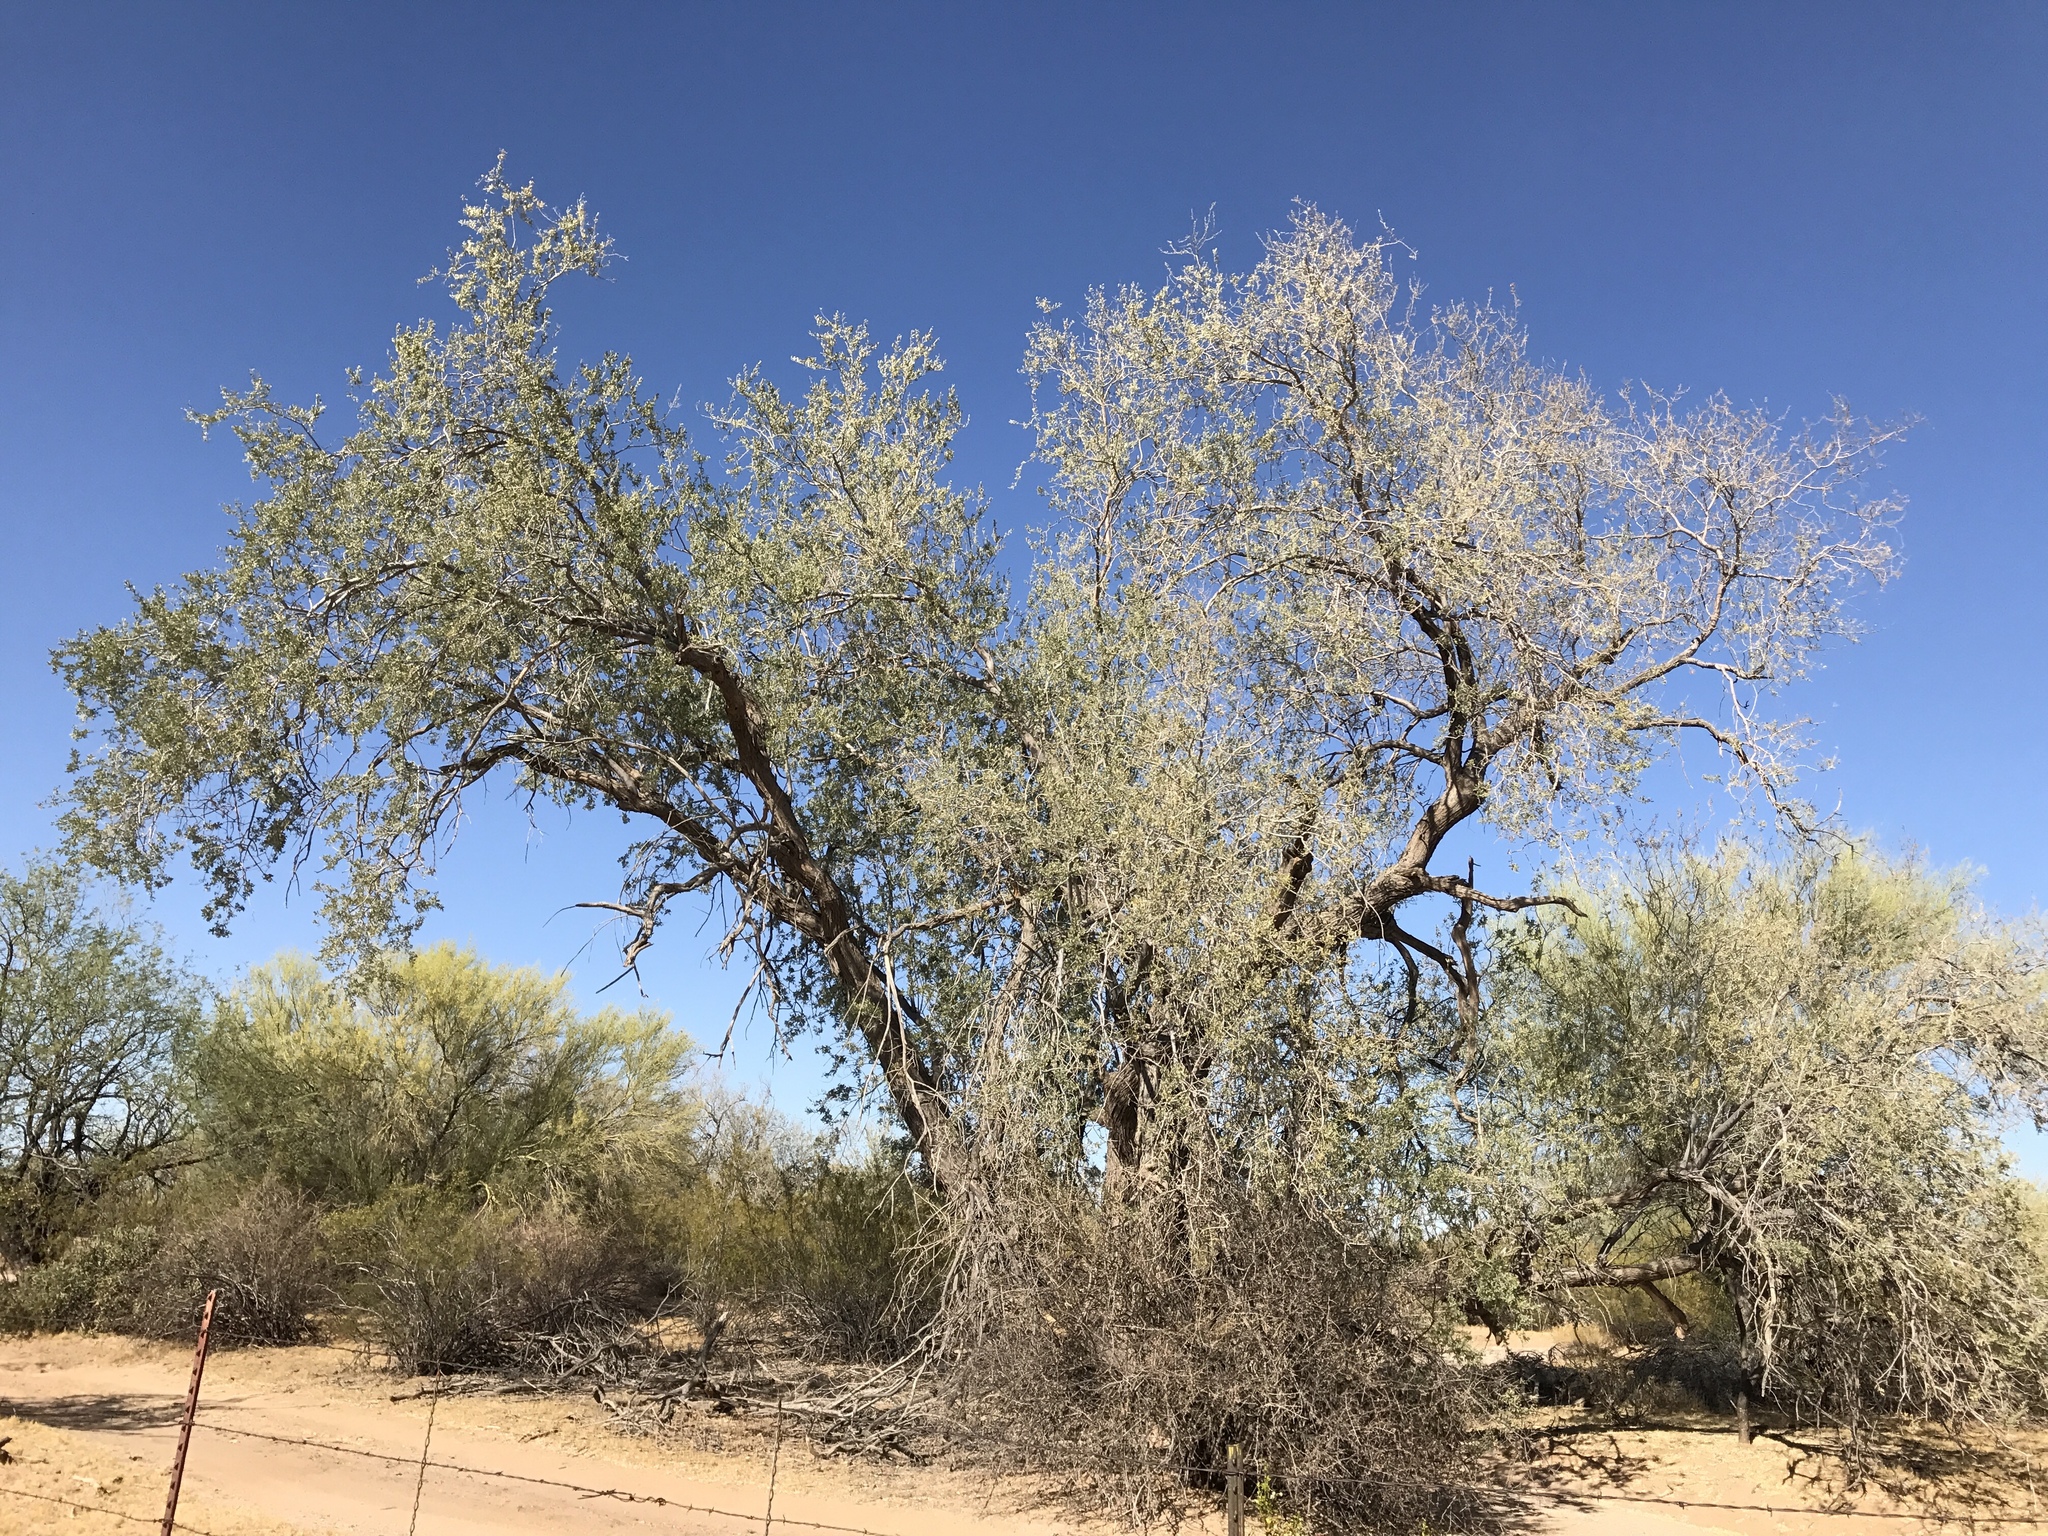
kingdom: Plantae
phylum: Tracheophyta
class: Magnoliopsida
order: Fabales
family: Fabaceae
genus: Olneya
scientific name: Olneya tesota
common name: Desert ironwood
